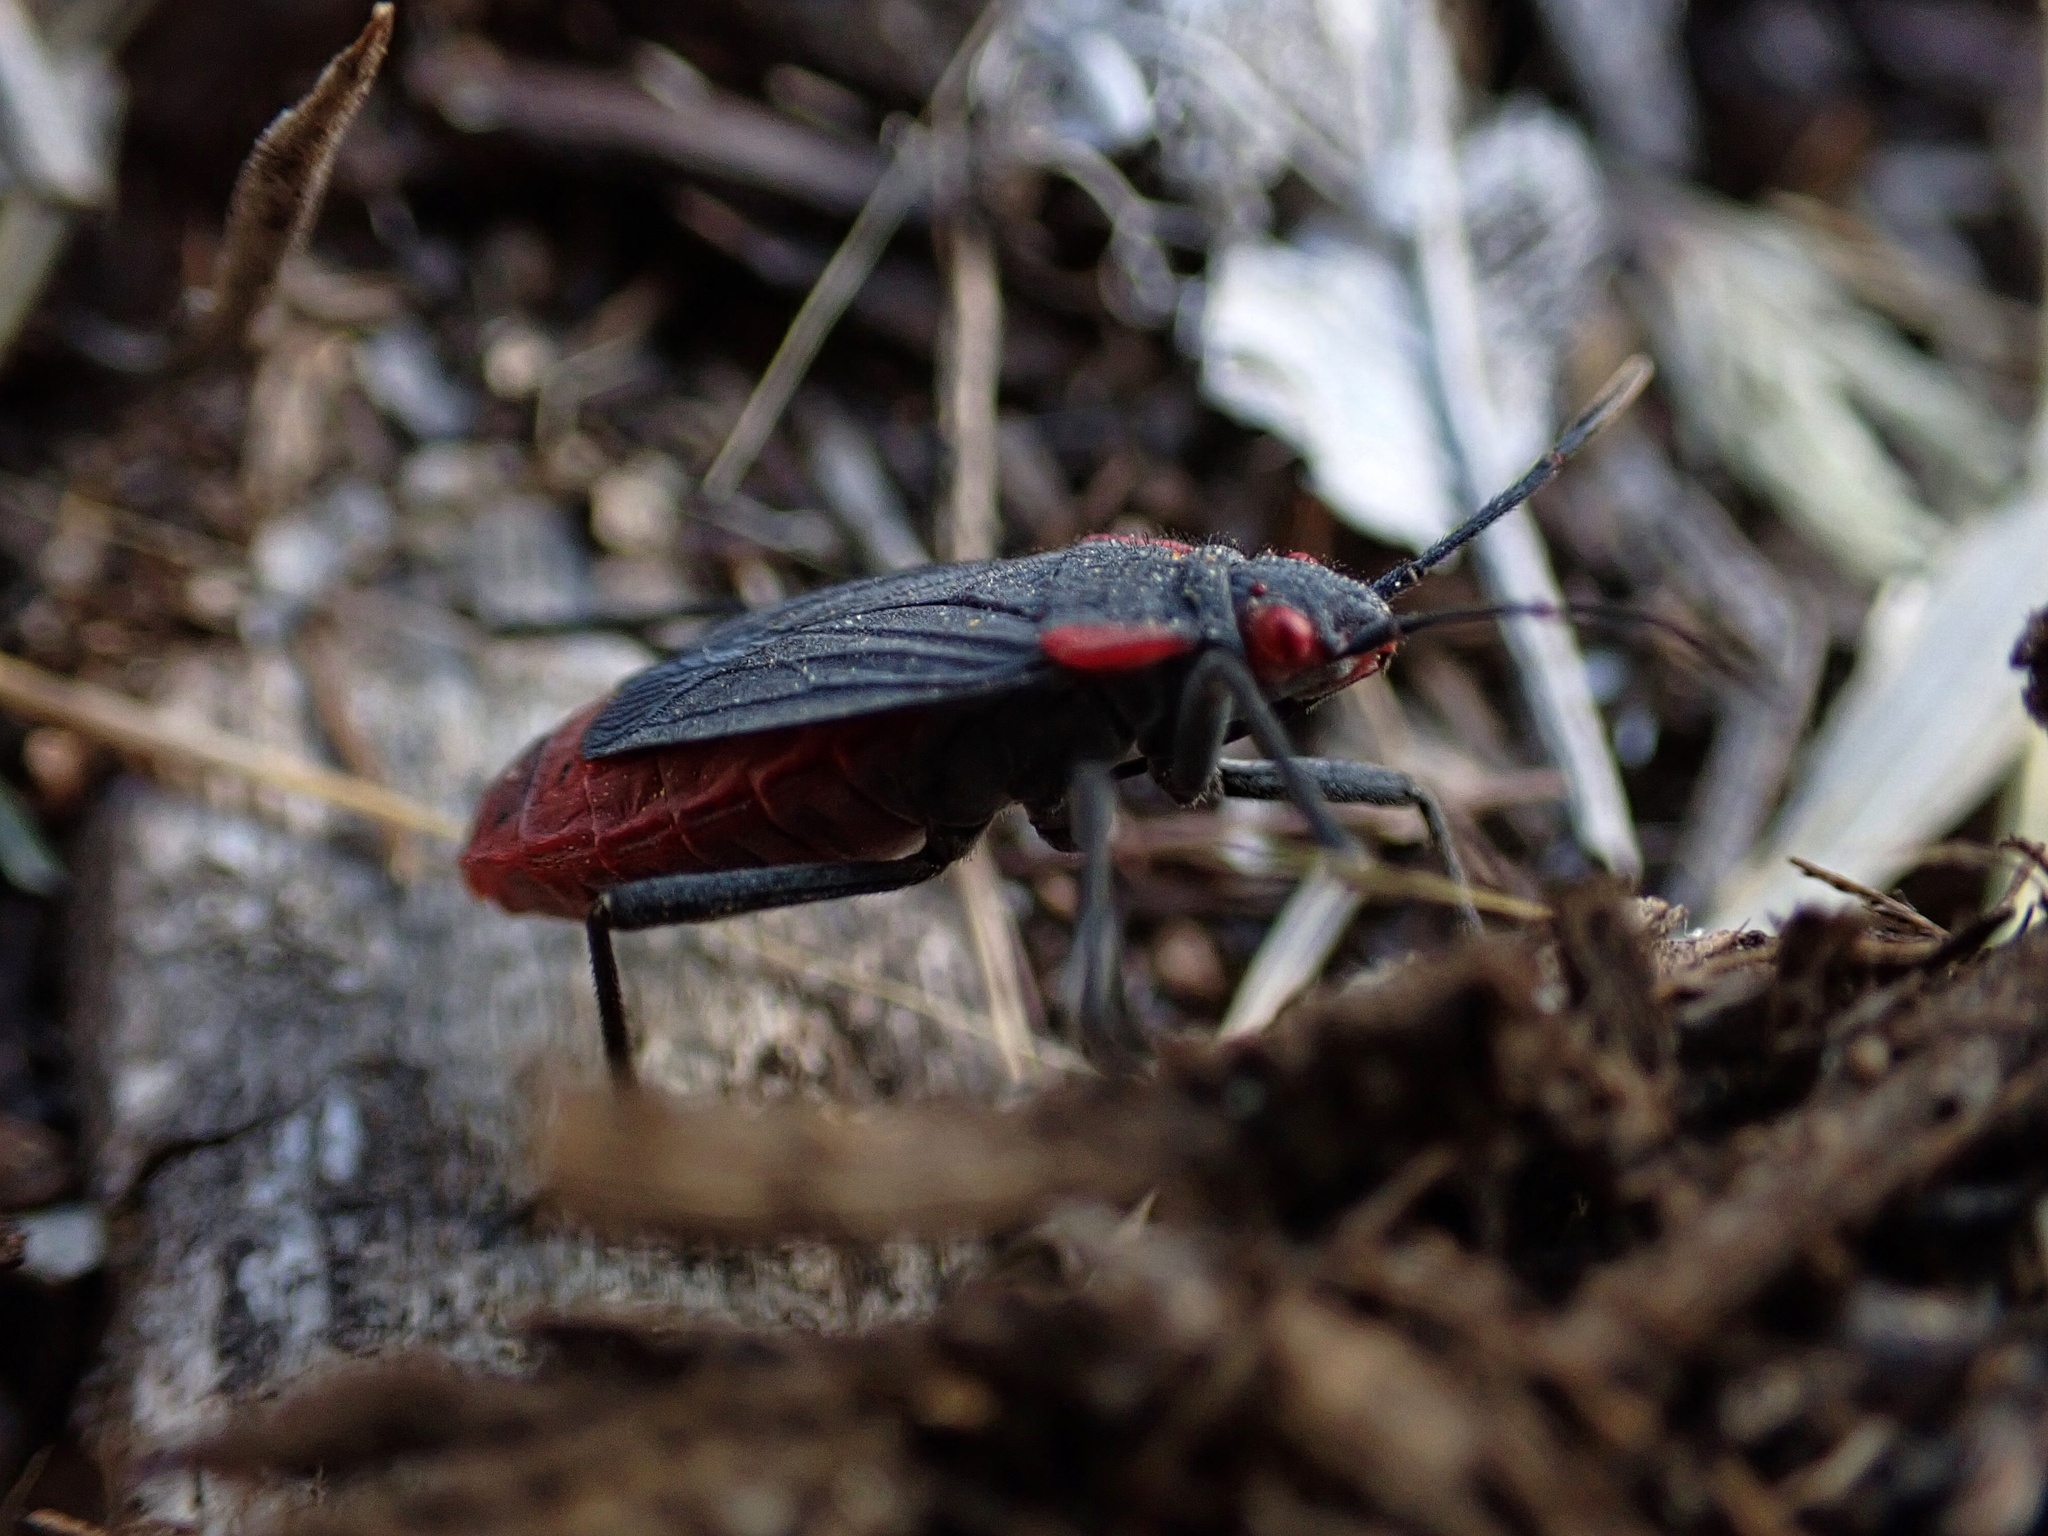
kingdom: Animalia
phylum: Arthropoda
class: Insecta
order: Hemiptera
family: Rhopalidae
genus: Jadera
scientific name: Jadera haematoloma
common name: Red-shouldered bug
